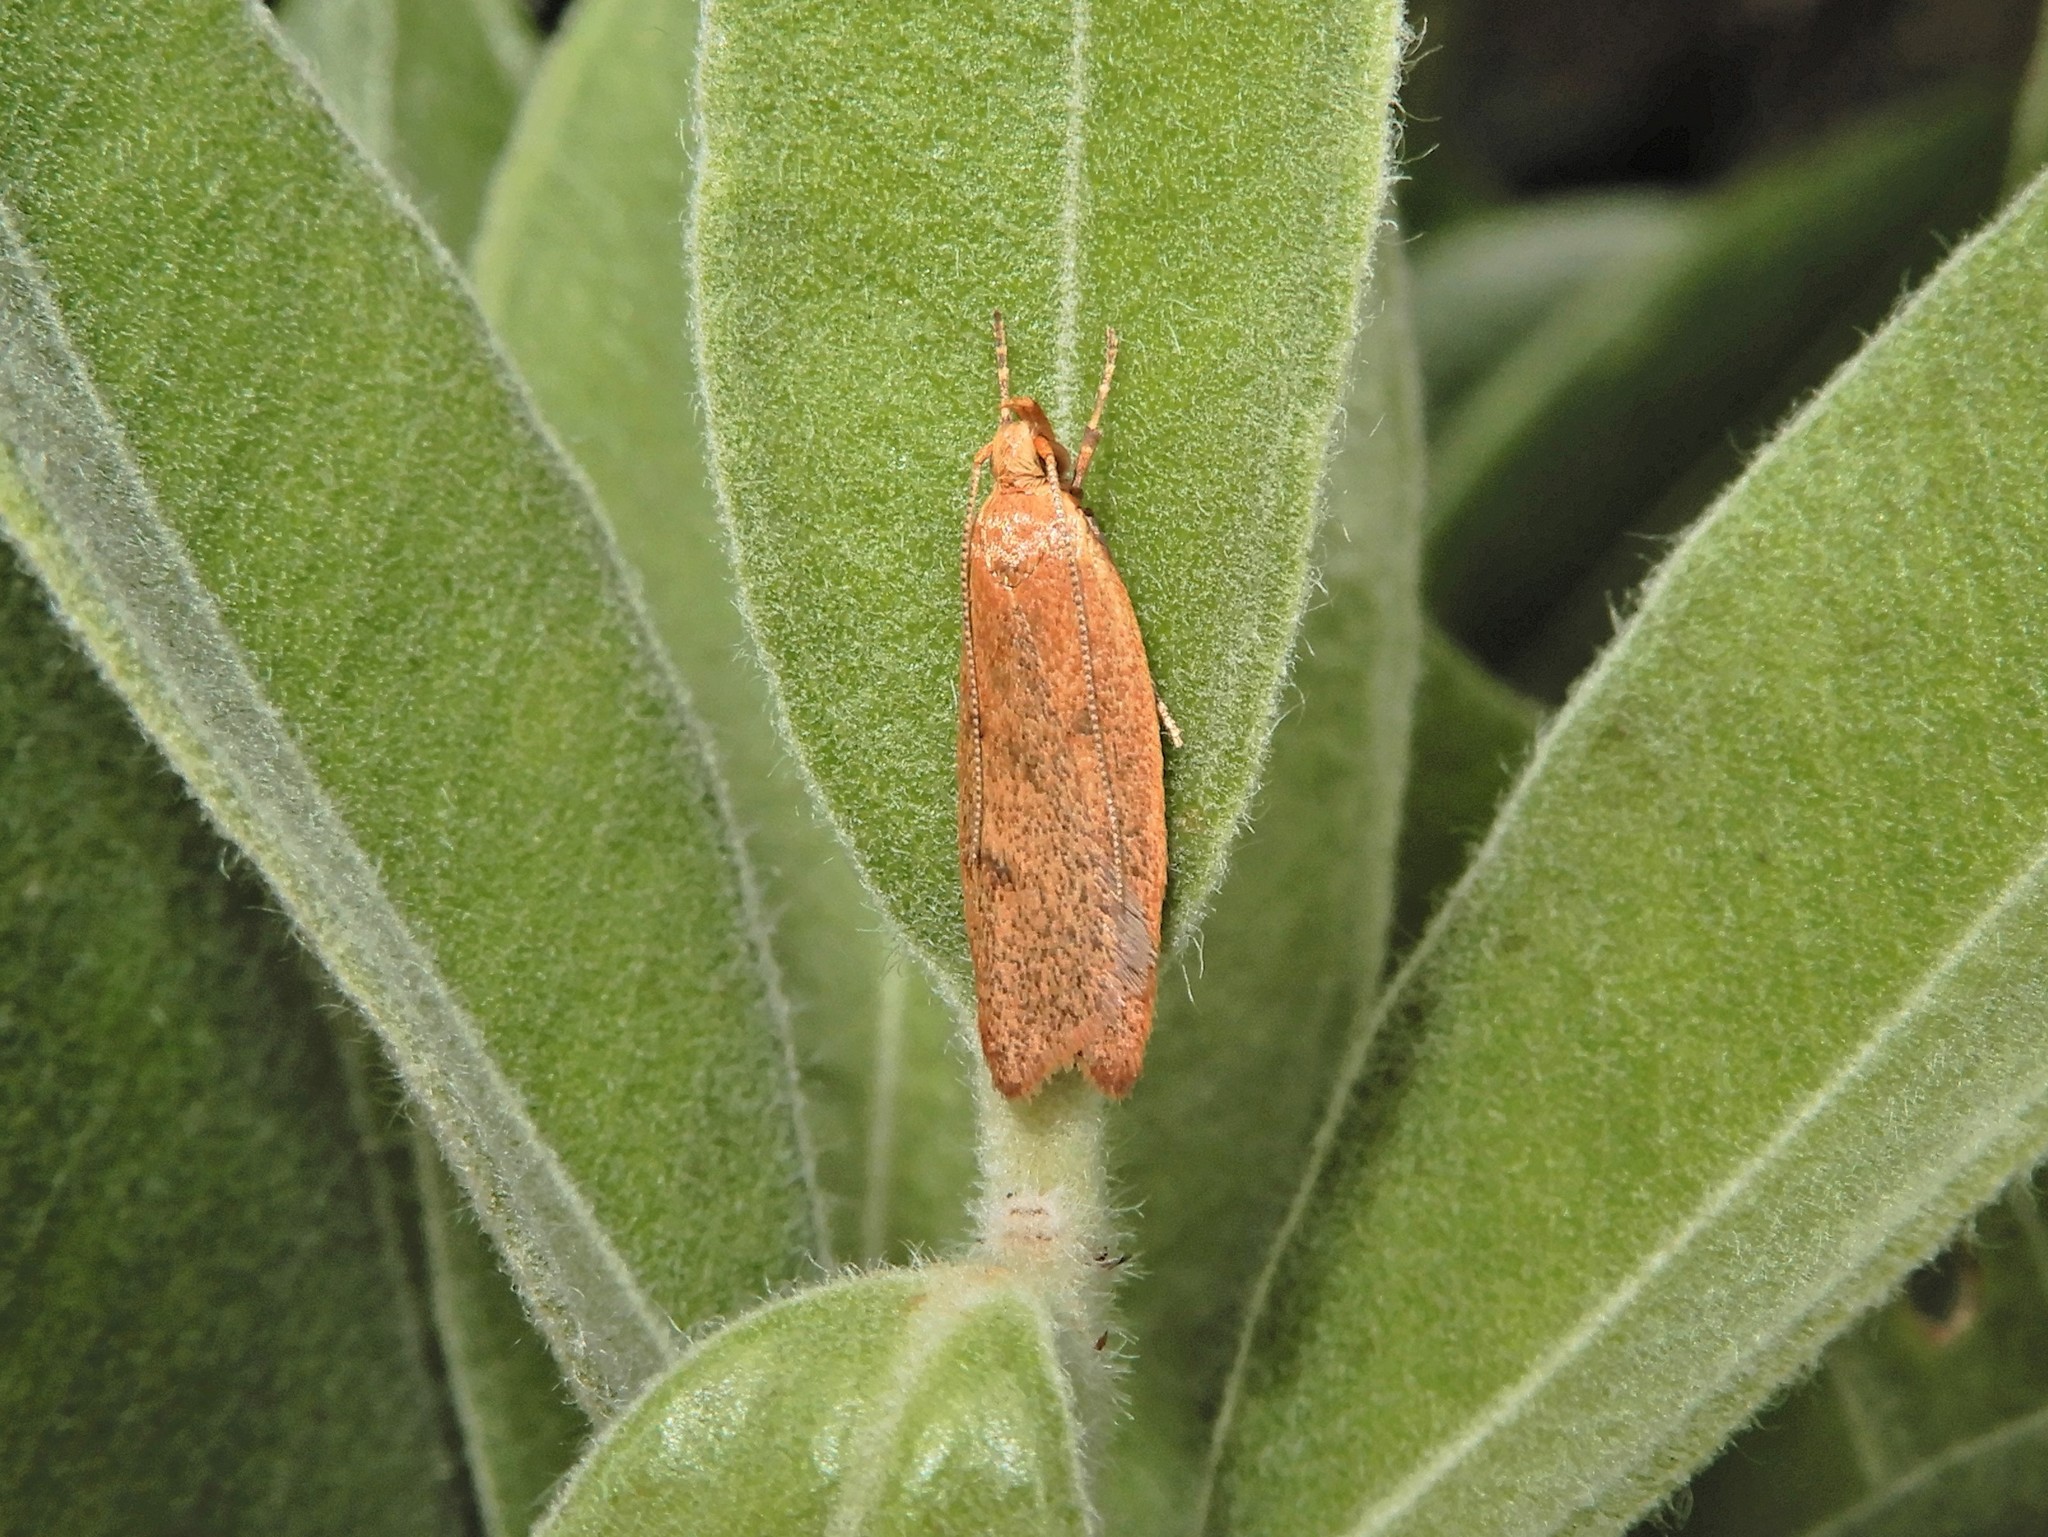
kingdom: Animalia
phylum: Arthropoda
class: Insecta
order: Lepidoptera
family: Oecophoridae
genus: Gymnobathra
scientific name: Gymnobathra sarcoxantha
